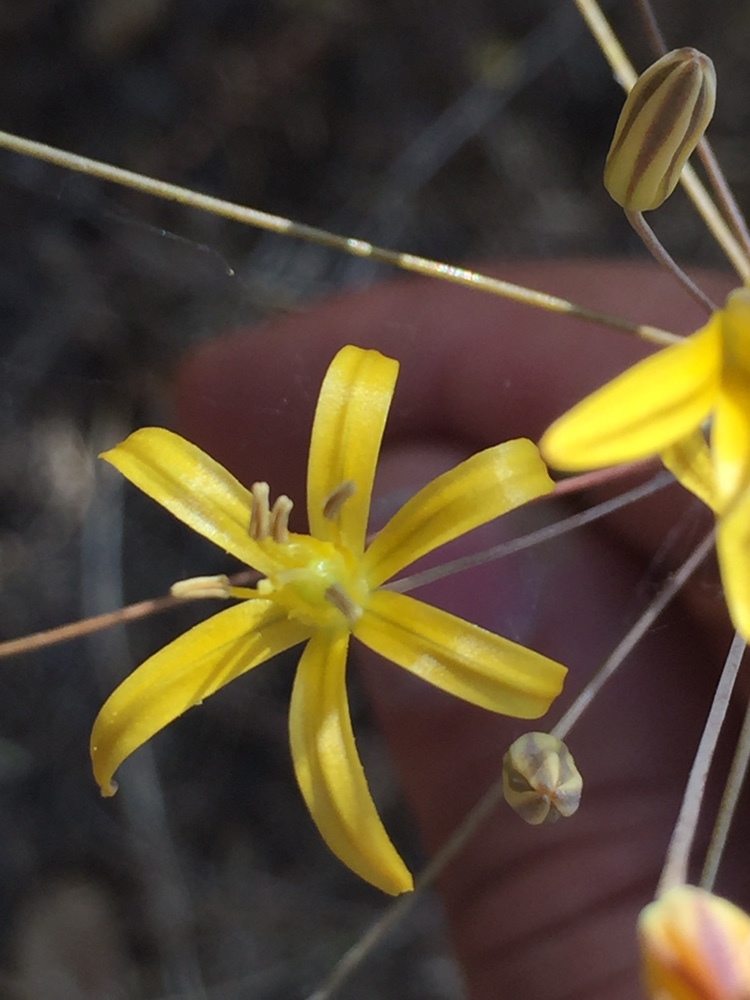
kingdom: Plantae
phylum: Tracheophyta
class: Liliopsida
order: Asparagales
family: Asparagaceae
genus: Bloomeria
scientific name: Bloomeria crocea
